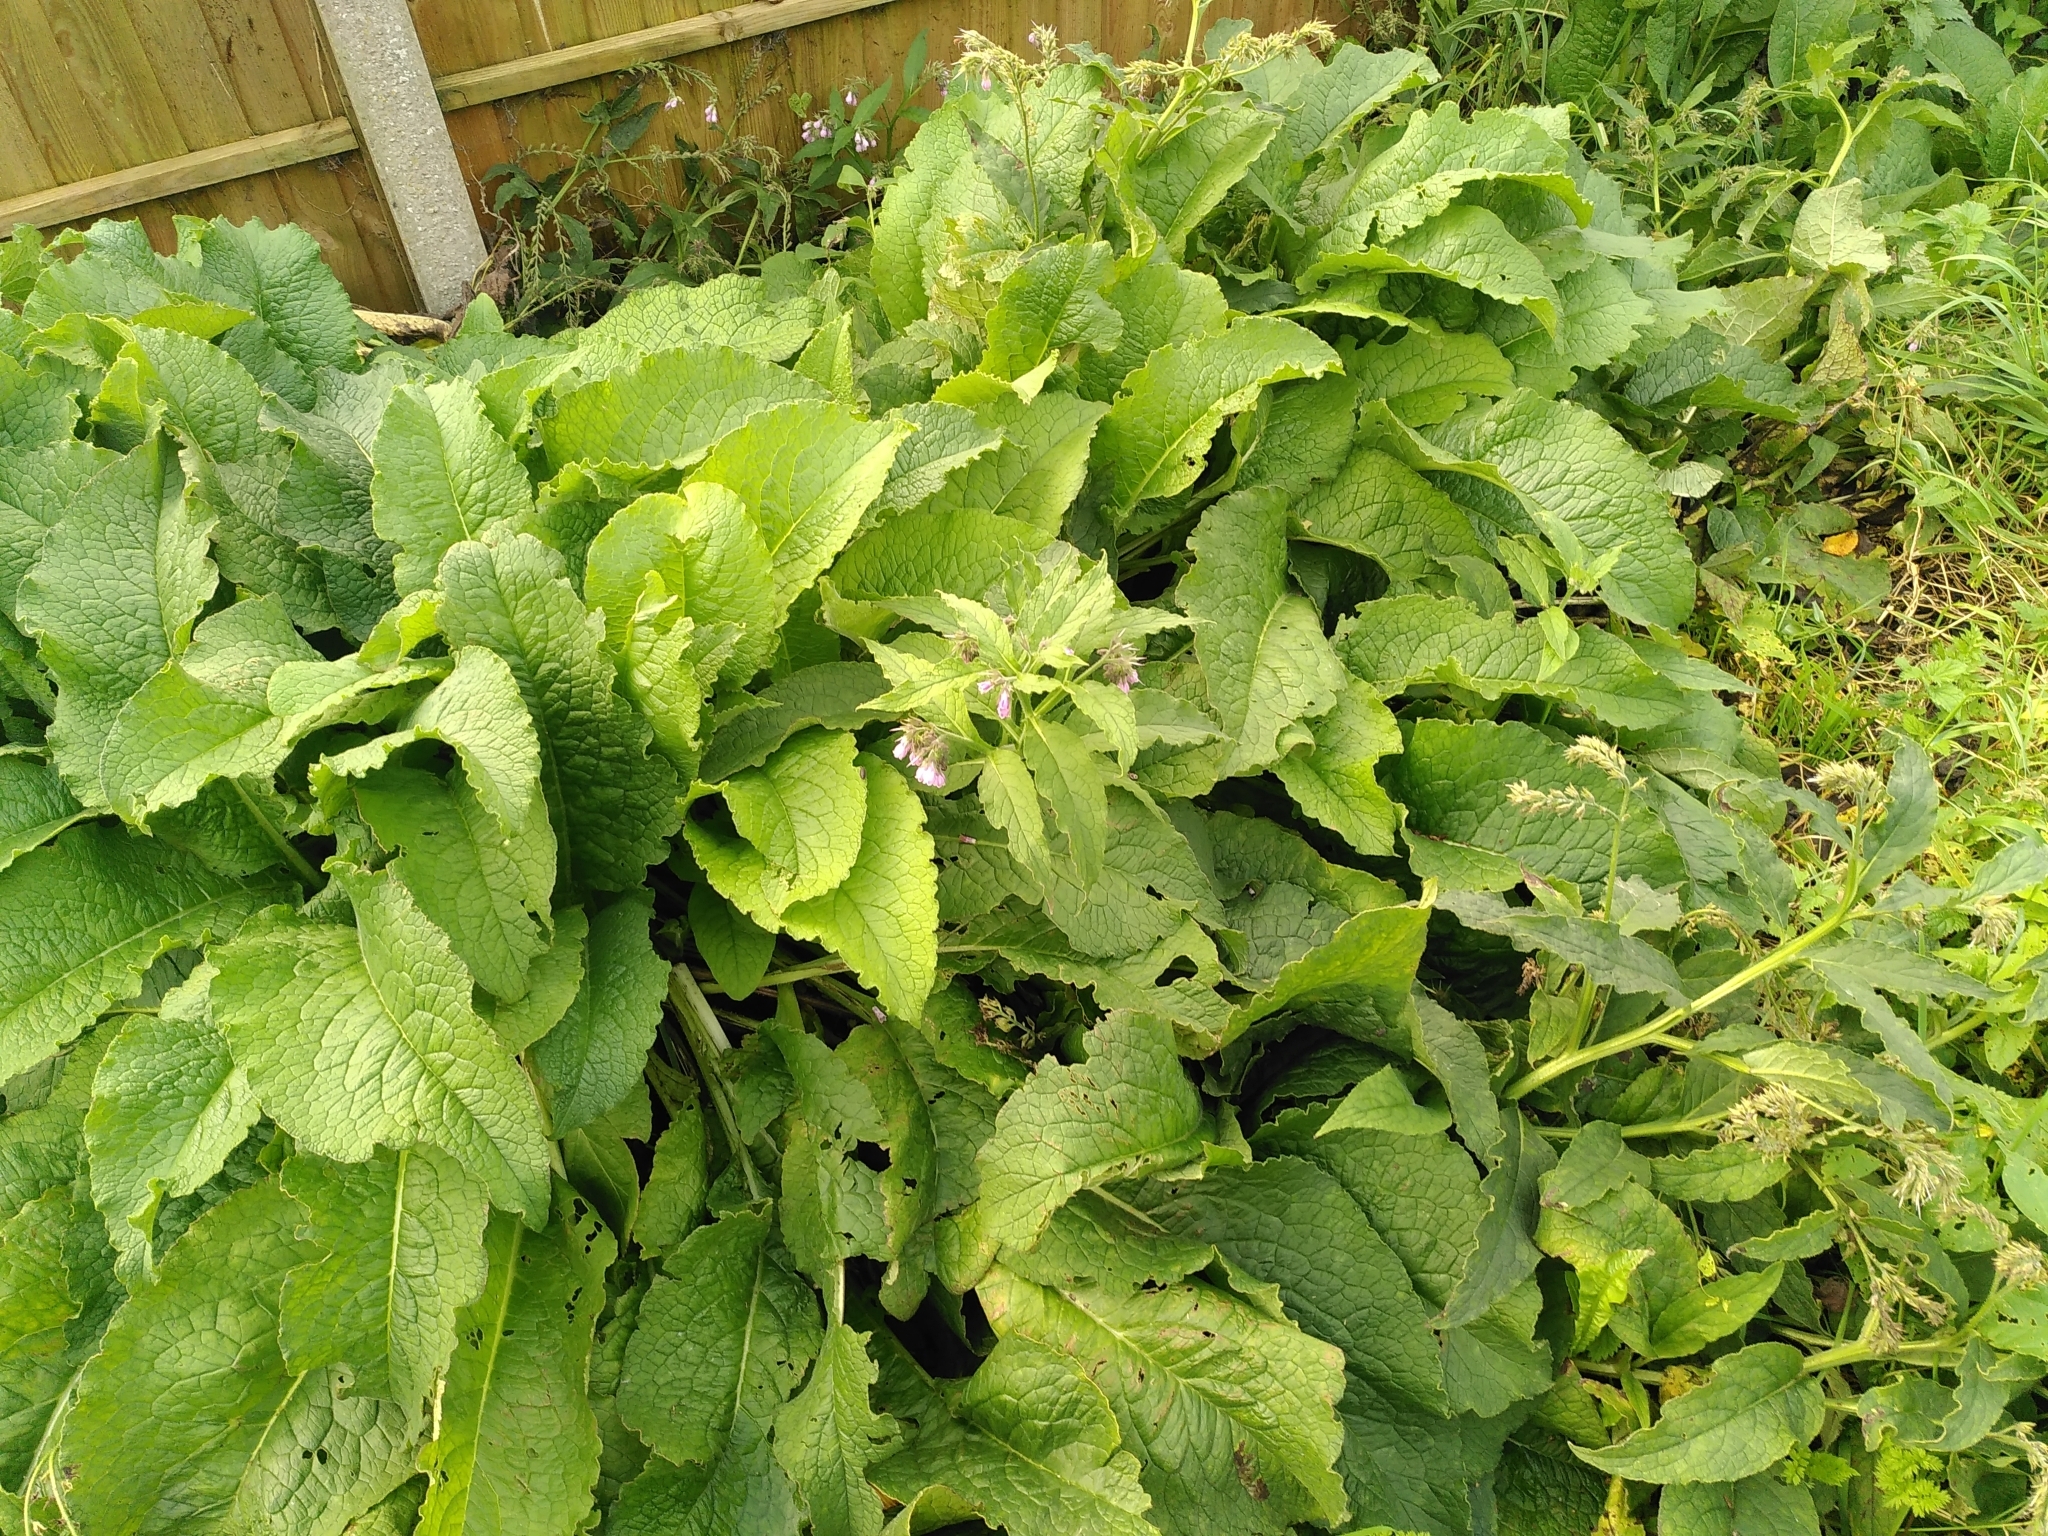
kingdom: Plantae
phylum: Tracheophyta
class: Magnoliopsida
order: Boraginales
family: Boraginaceae
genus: Symphytum
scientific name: Symphytum uplandicum
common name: Russian comfrey
